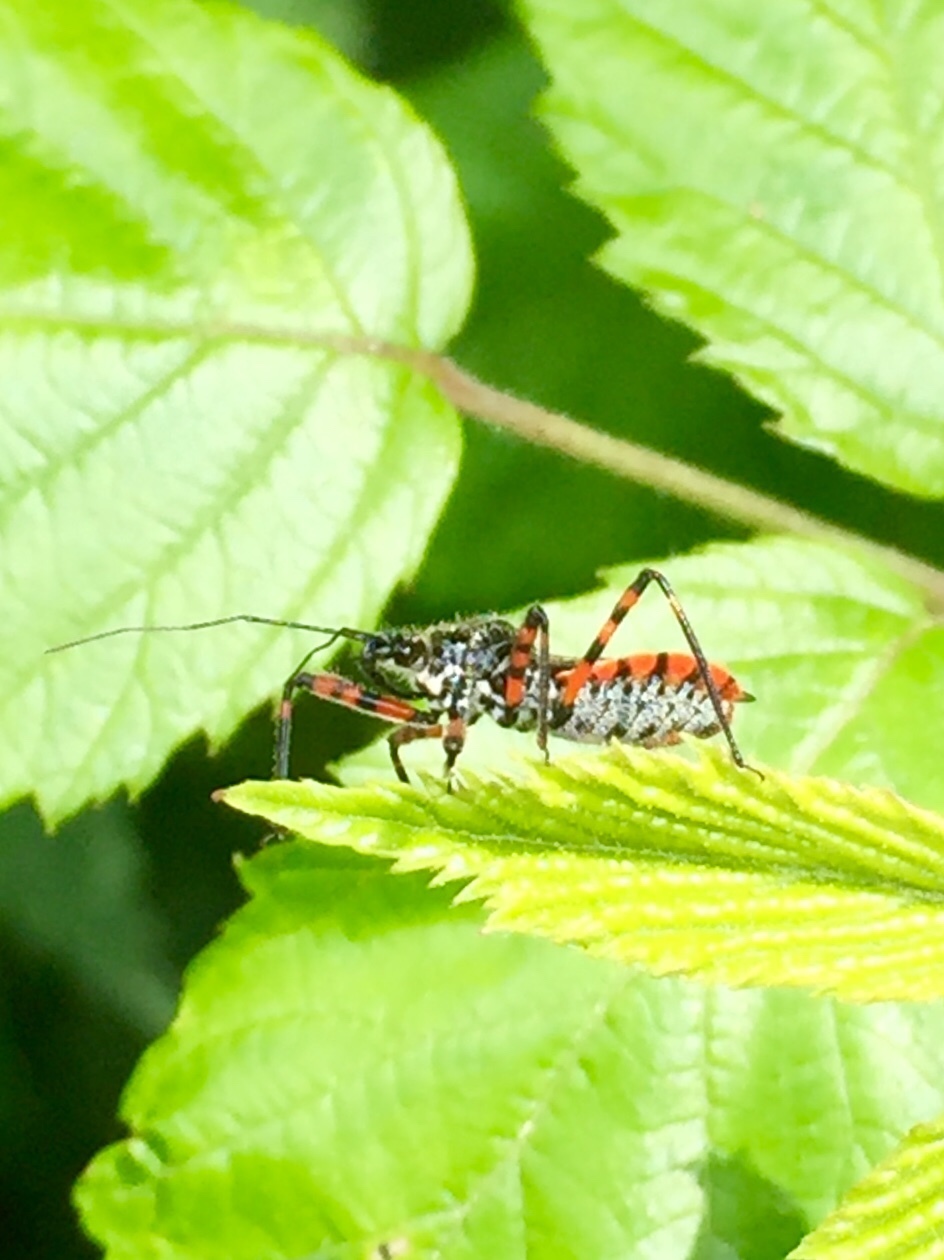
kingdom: Animalia
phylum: Arthropoda
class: Insecta
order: Hemiptera
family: Reduviidae
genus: Sphedanolestes
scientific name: Sphedanolestes cingulatus
